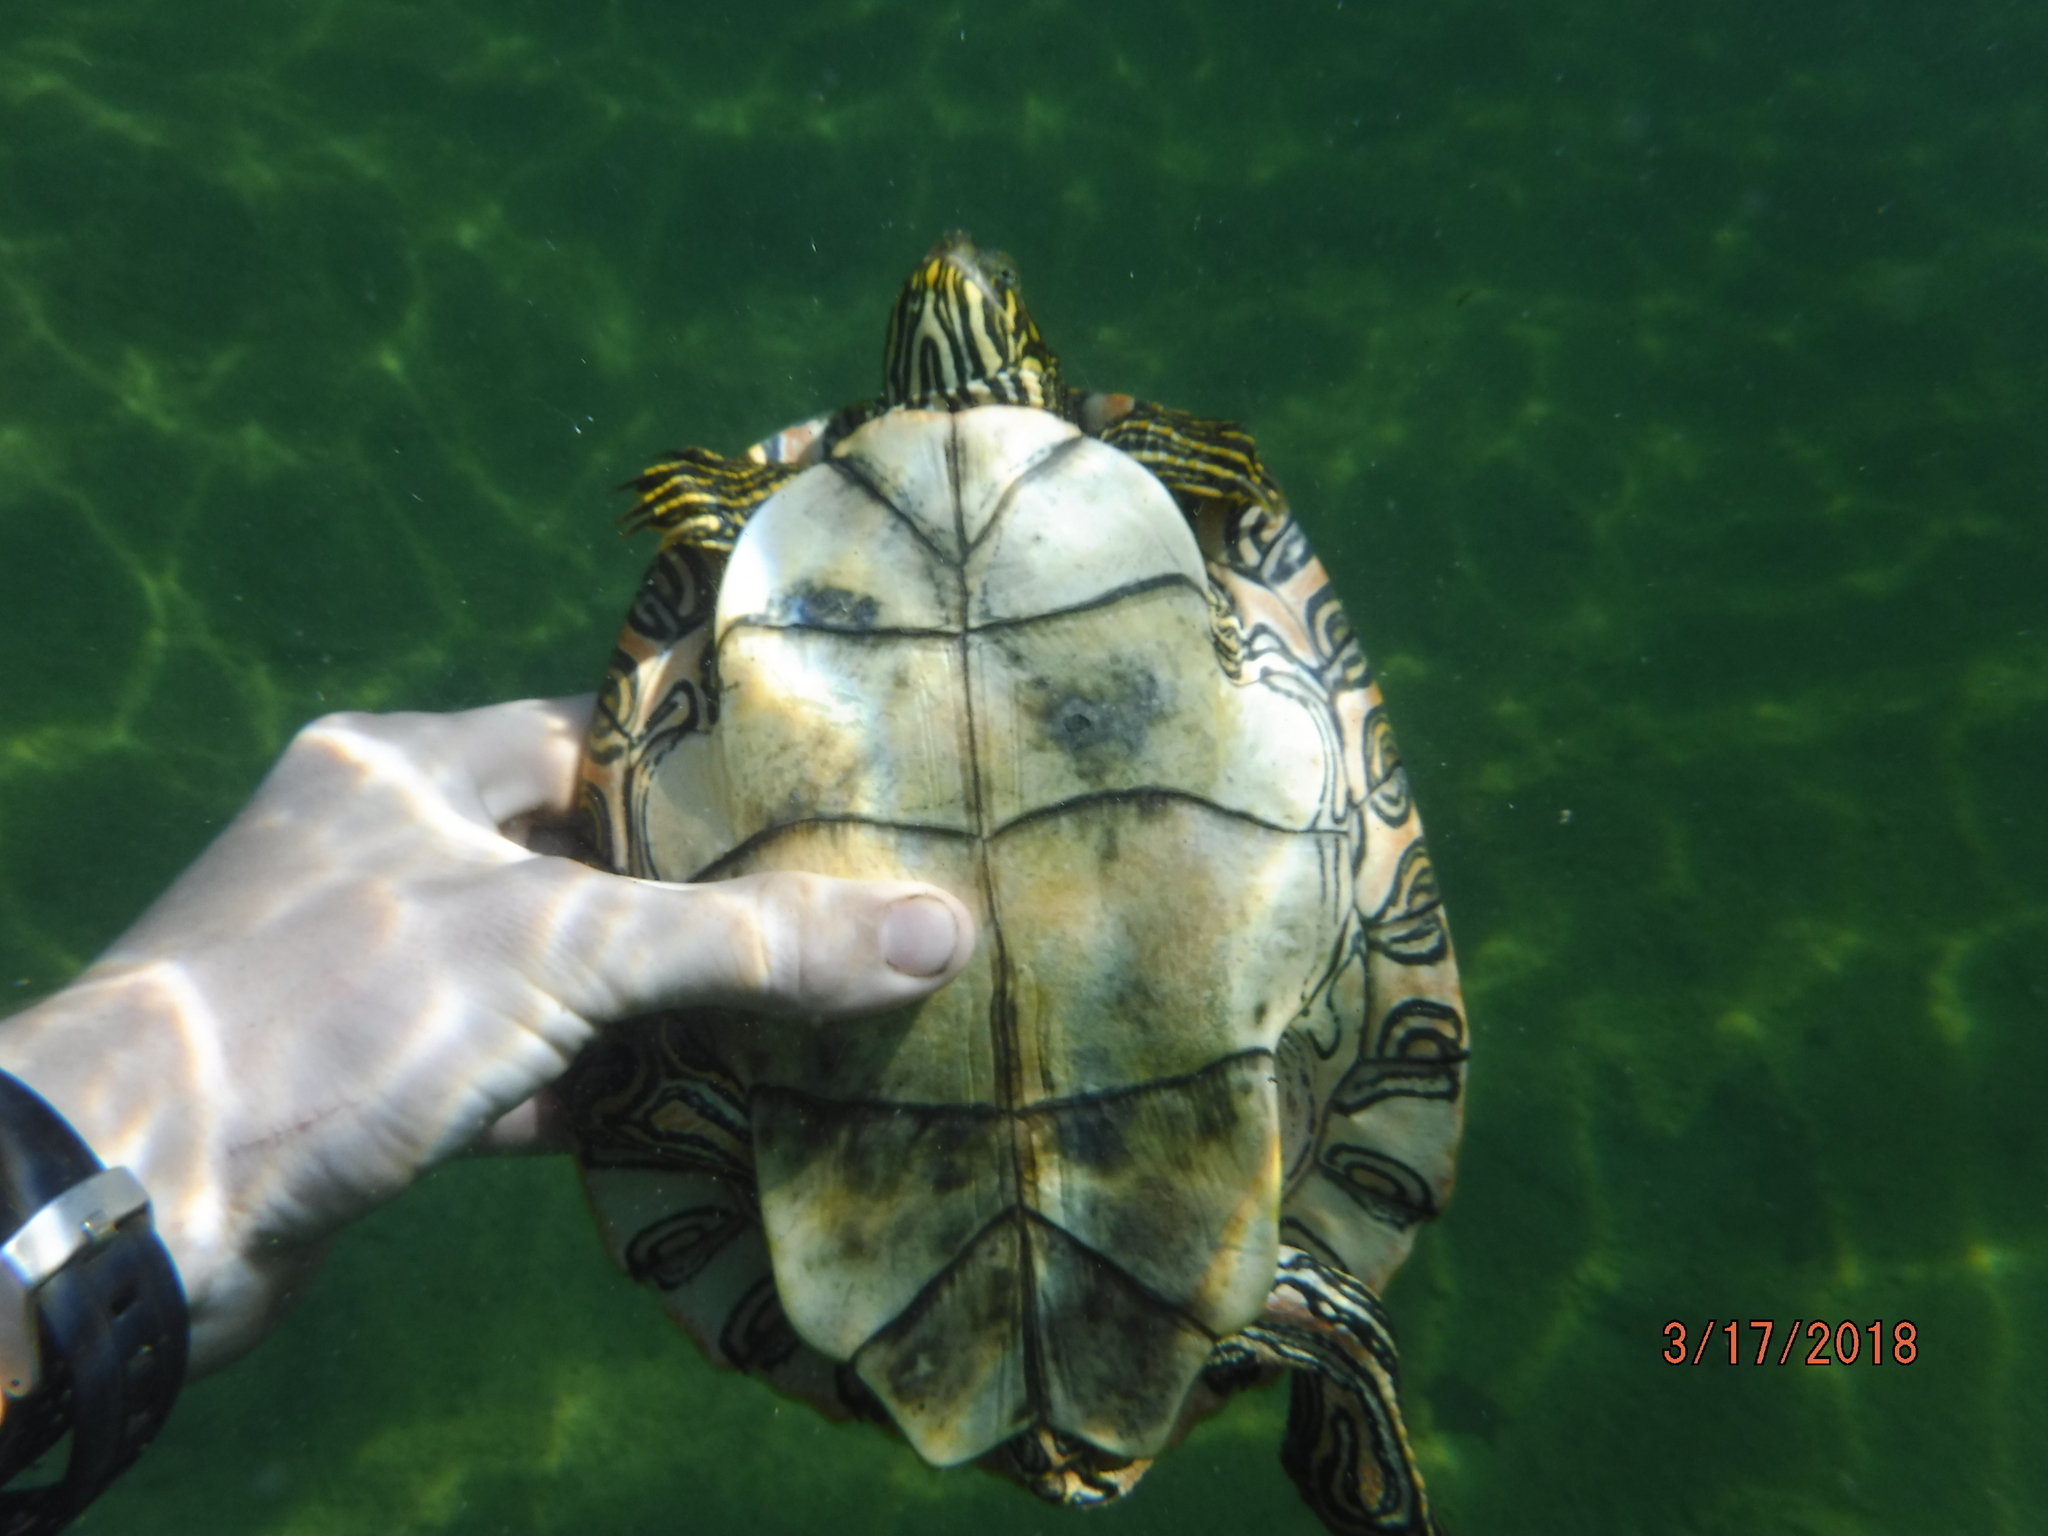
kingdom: Animalia
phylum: Chordata
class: Testudines
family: Emydidae
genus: Pseudemys
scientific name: Pseudemys texana
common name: Texas river cooter
